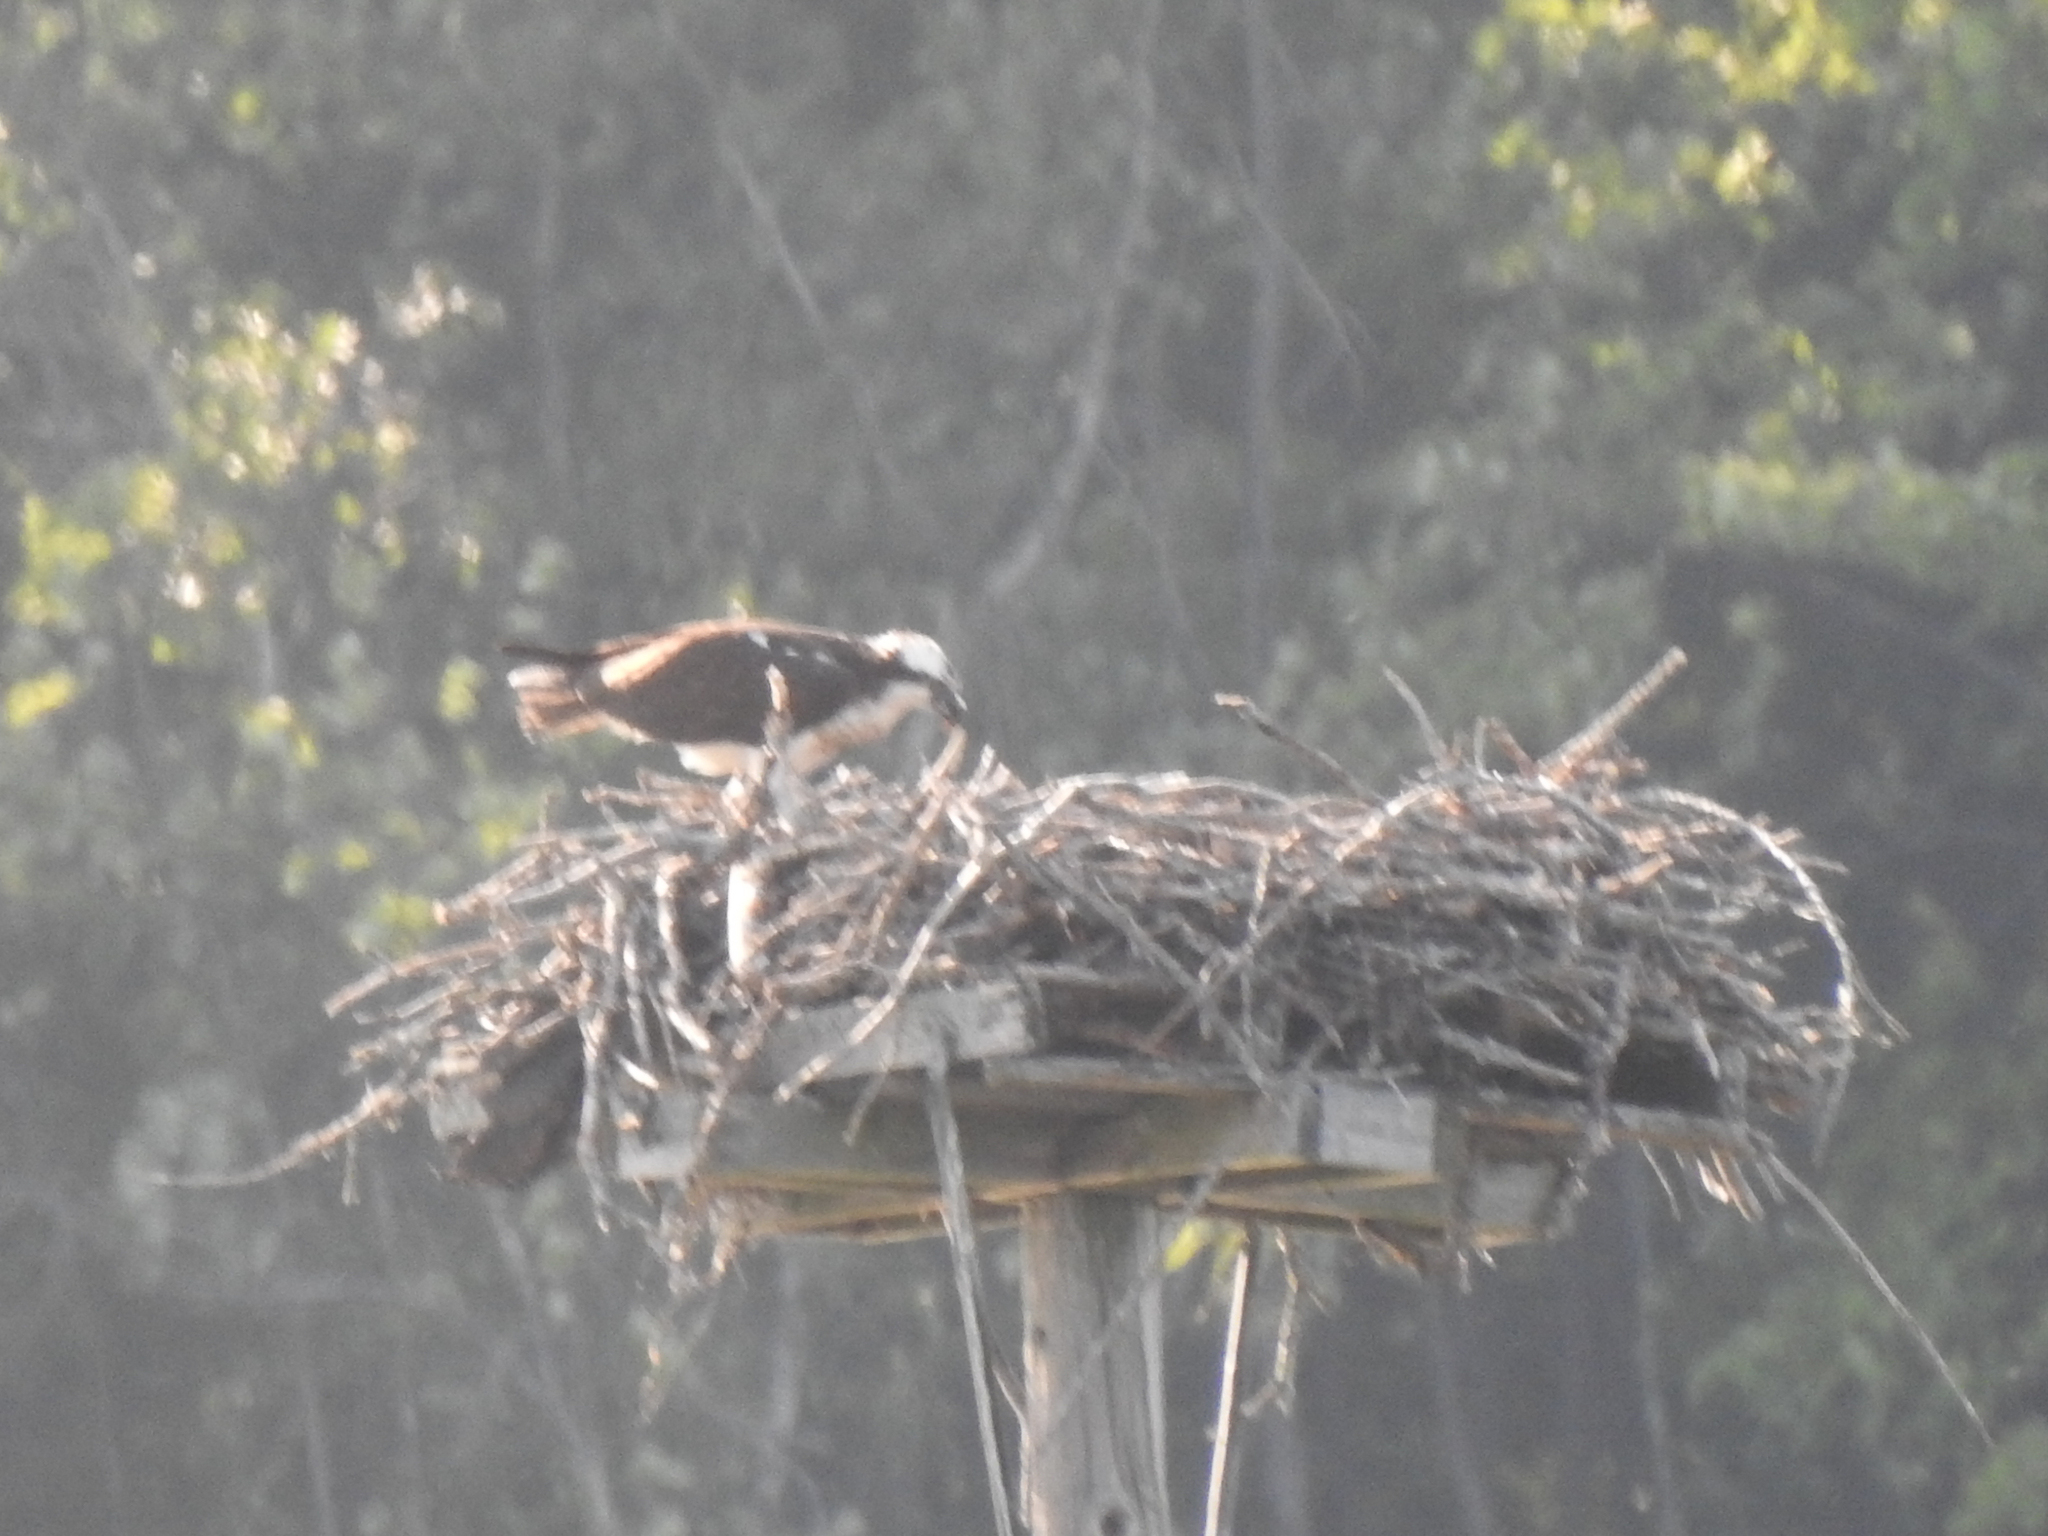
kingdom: Animalia
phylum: Chordata
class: Aves
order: Accipitriformes
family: Pandionidae
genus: Pandion
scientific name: Pandion haliaetus
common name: Osprey
